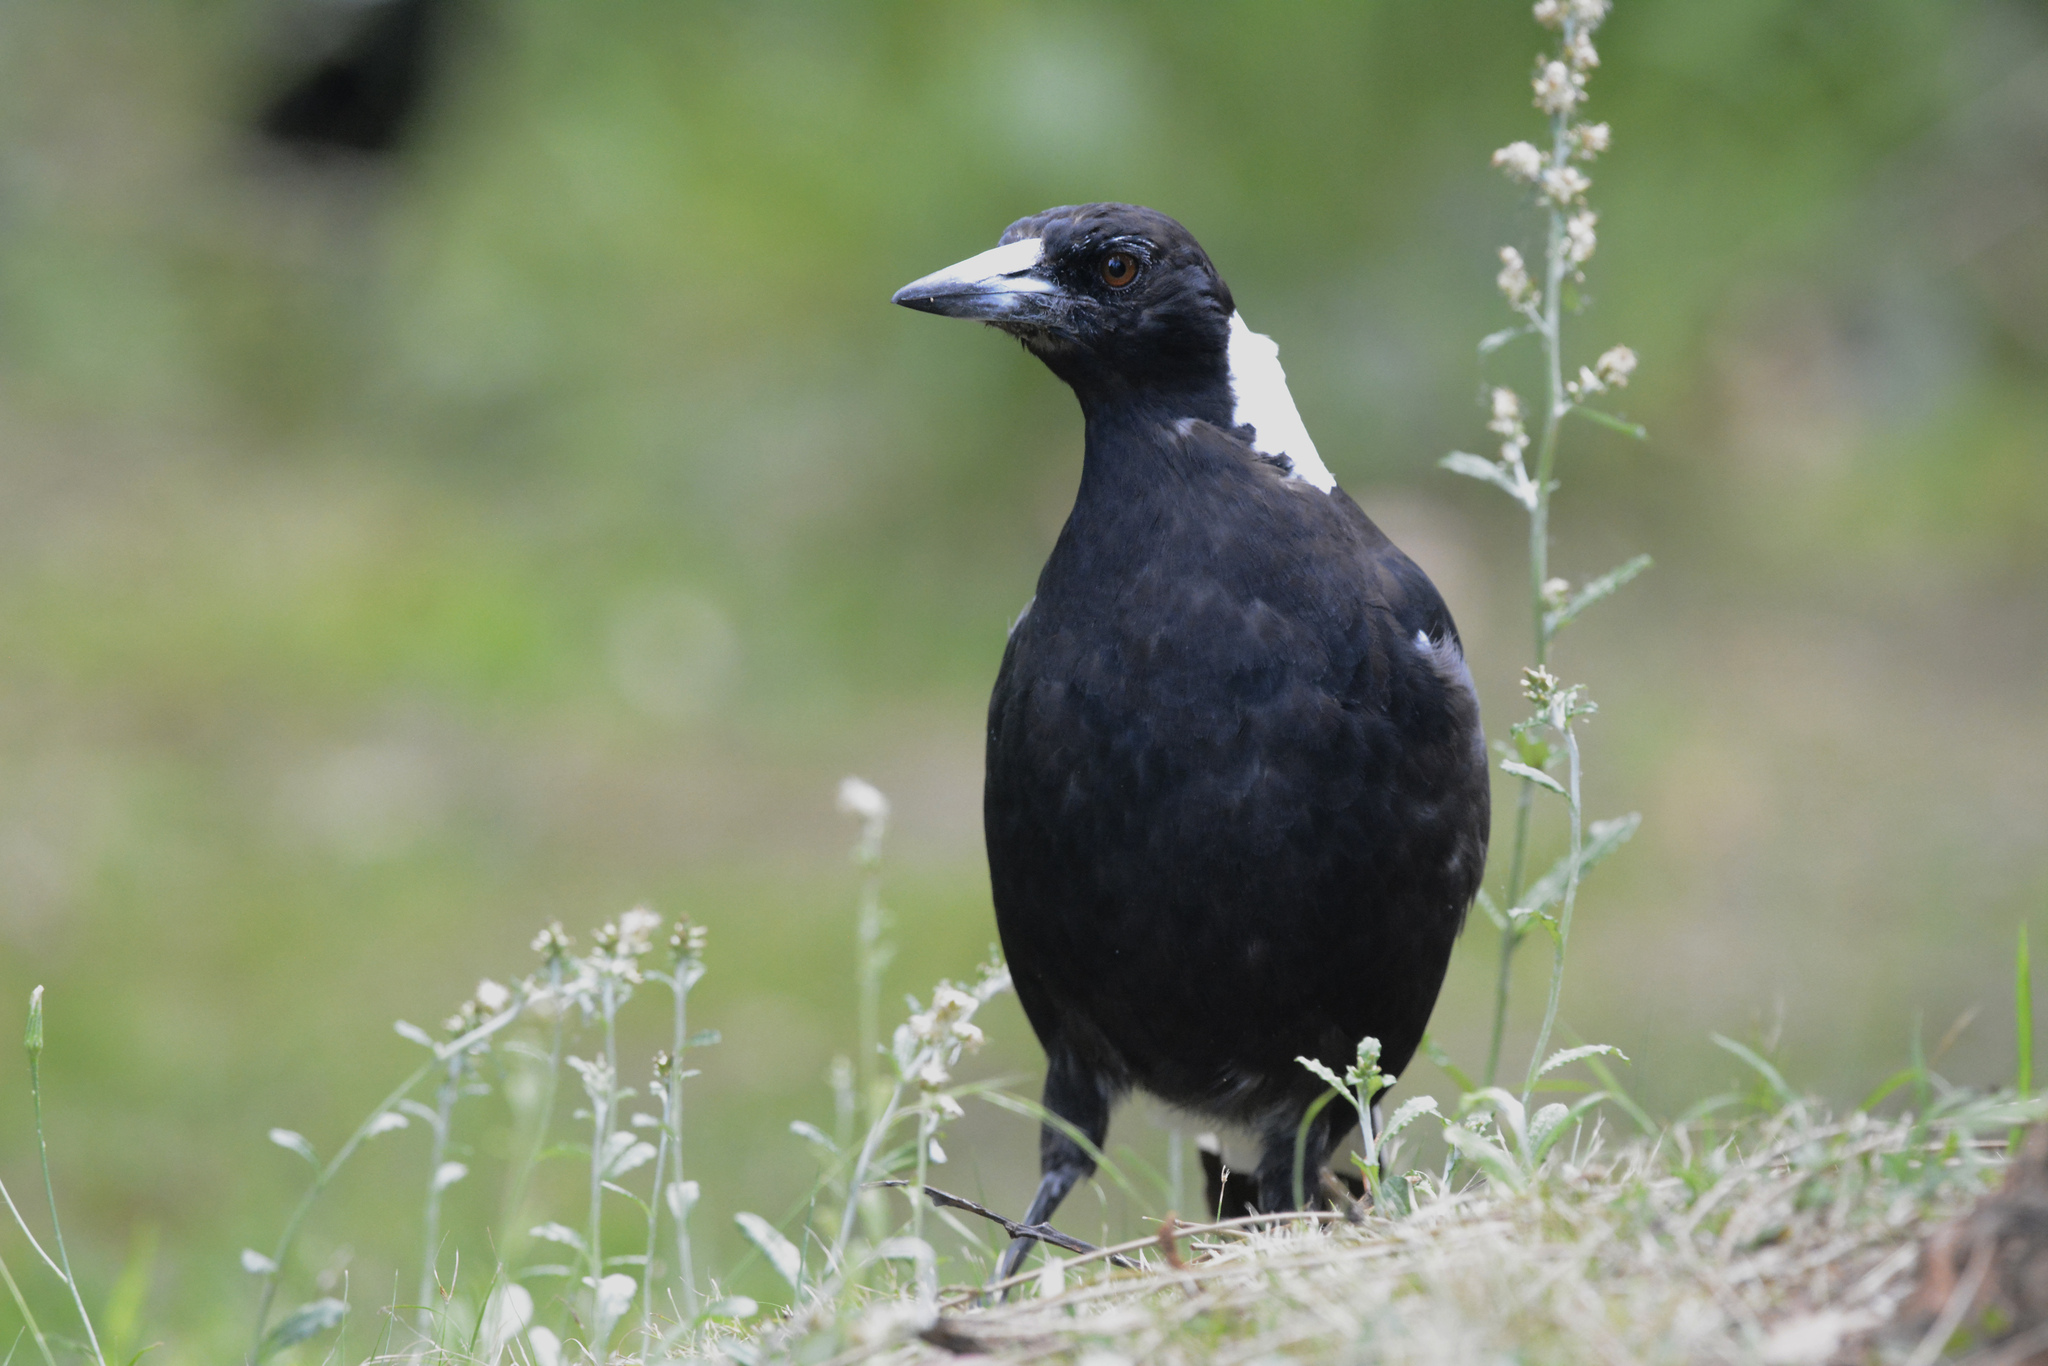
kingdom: Animalia
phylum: Chordata
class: Aves
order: Passeriformes
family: Cracticidae
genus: Gymnorhina
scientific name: Gymnorhina tibicen
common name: Australian magpie
